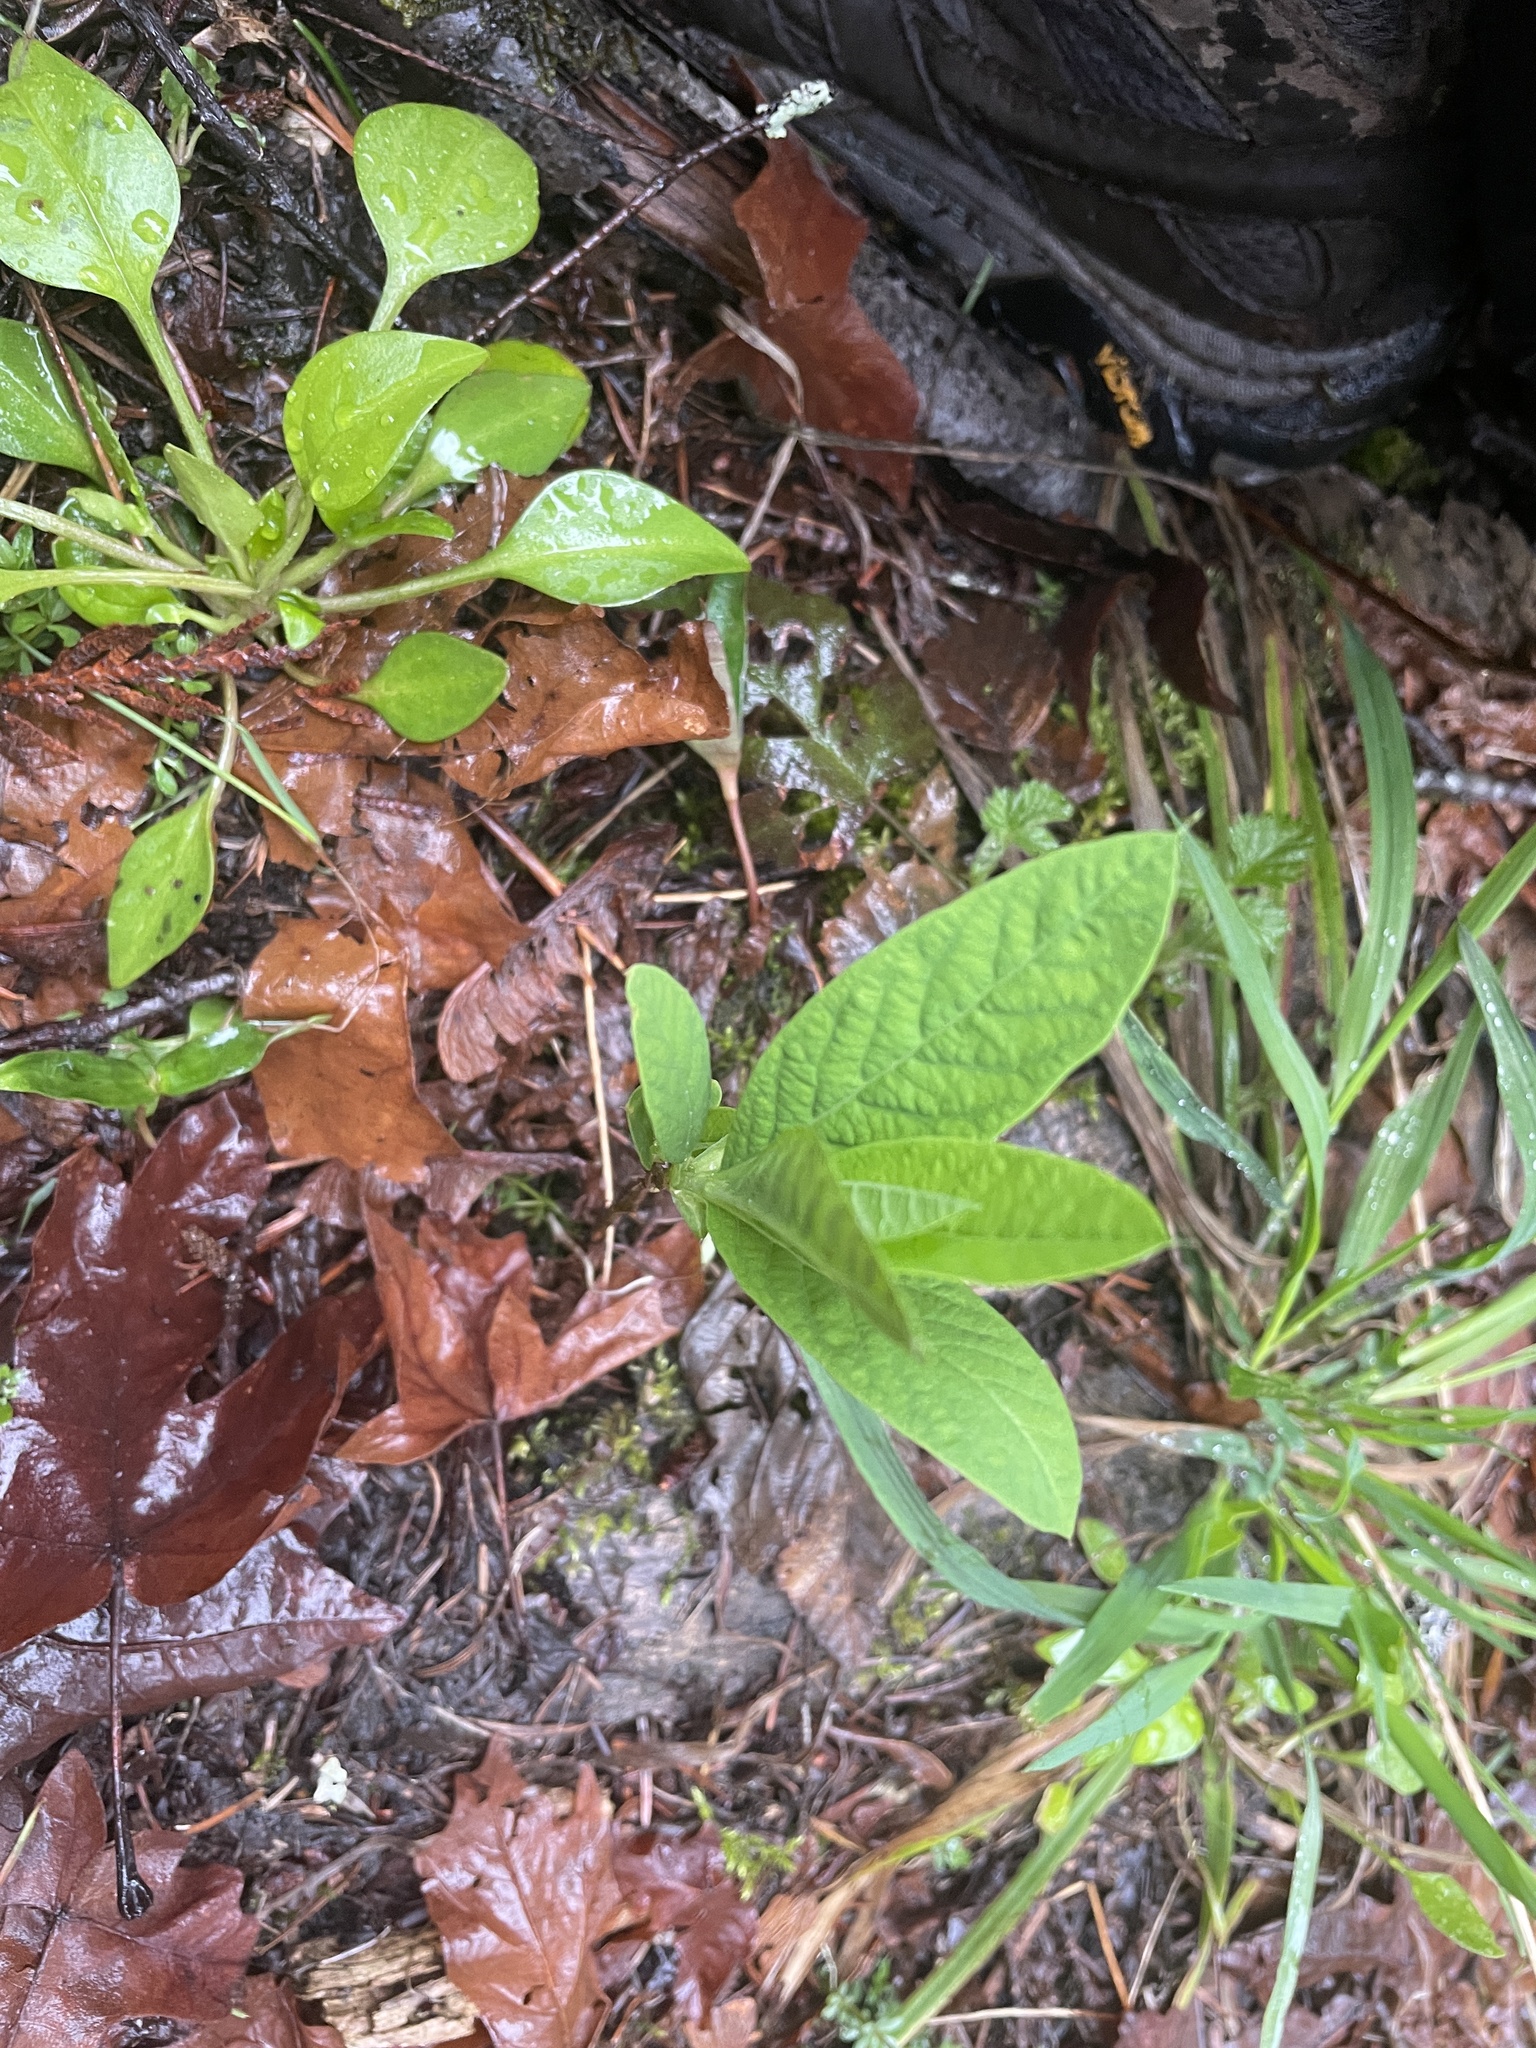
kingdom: Plantae
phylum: Tracheophyta
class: Magnoliopsida
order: Rosales
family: Rosaceae
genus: Oemleria
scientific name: Oemleria cerasiformis
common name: Osoberry
